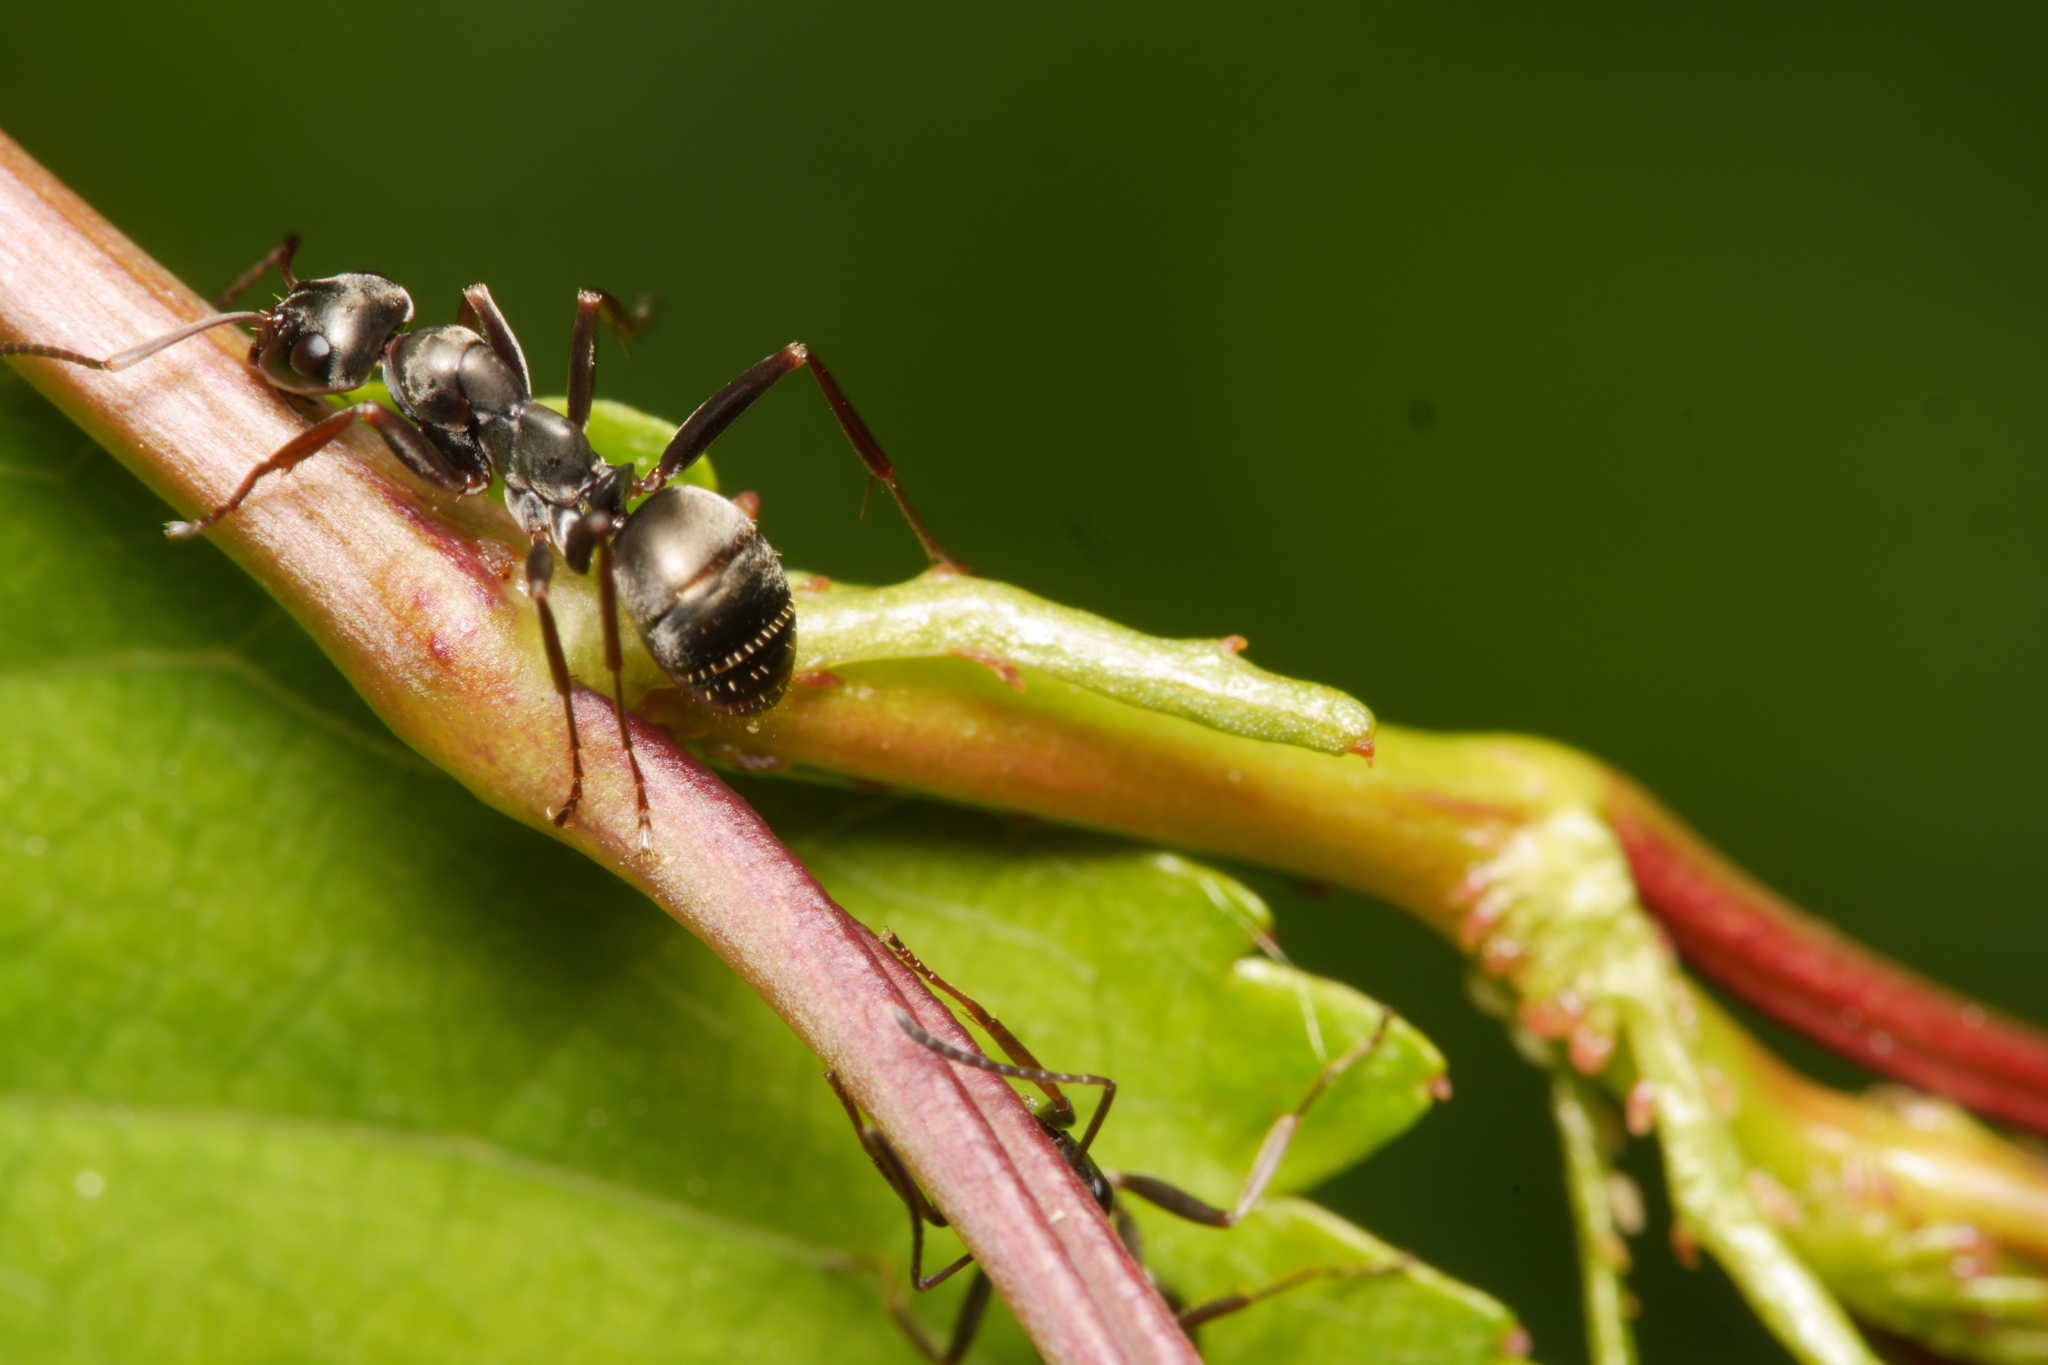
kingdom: Animalia
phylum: Arthropoda
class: Insecta
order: Hymenoptera
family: Formicidae
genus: Formica
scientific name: Formica fusca
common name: Silky ant
